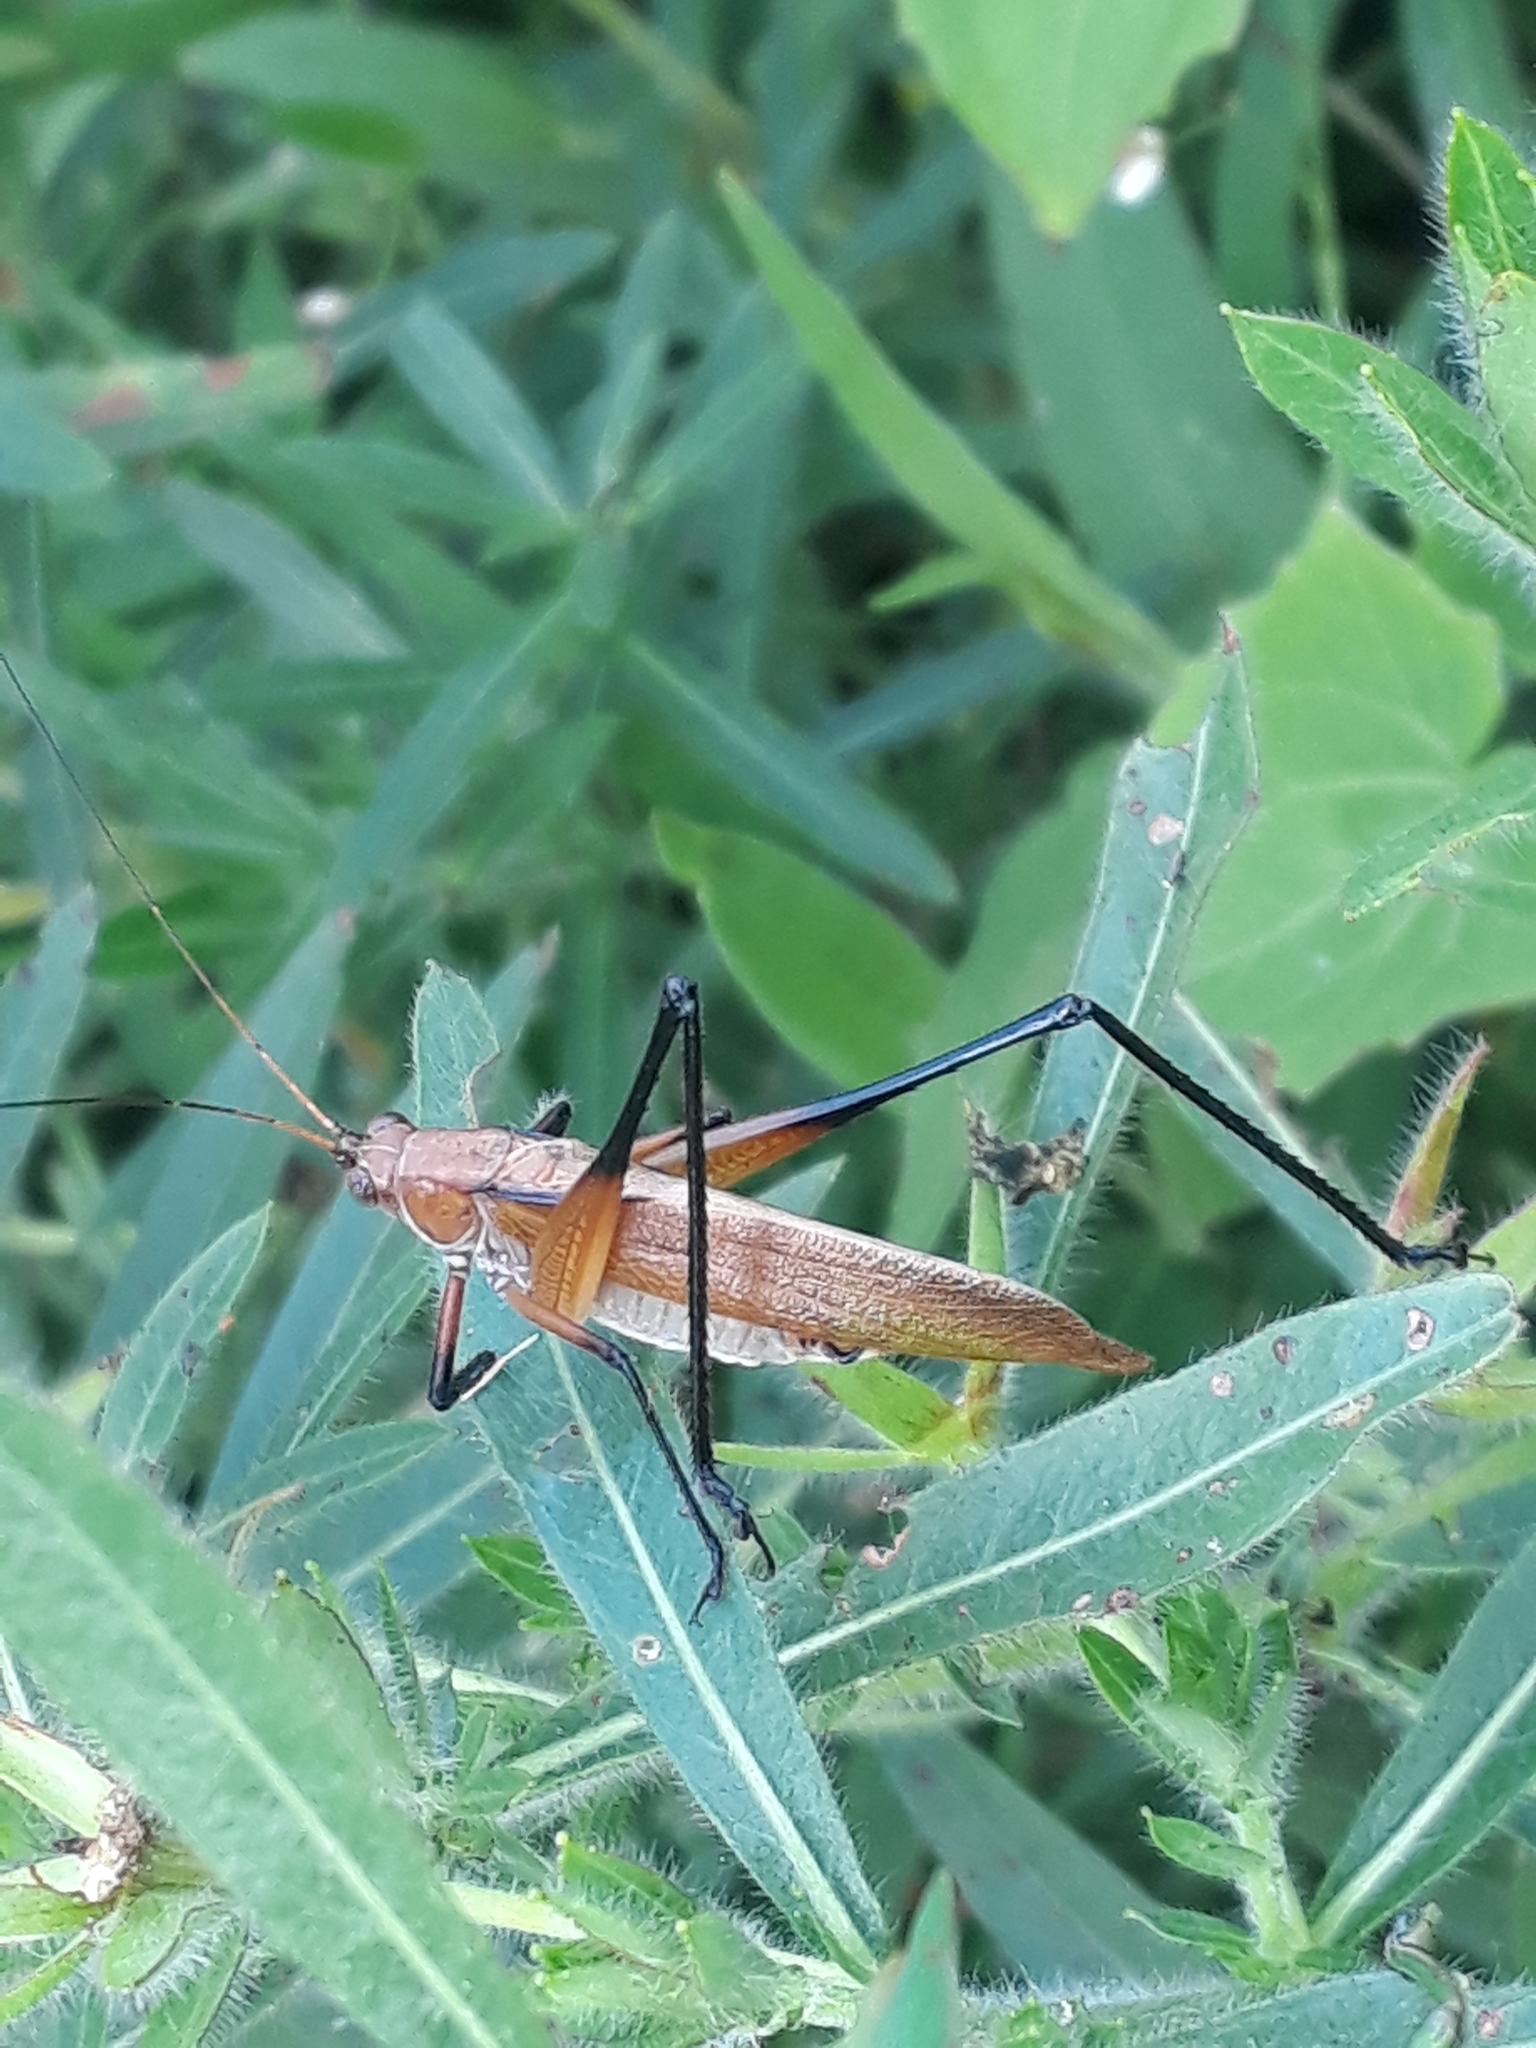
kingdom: Animalia
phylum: Arthropoda
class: Insecta
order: Orthoptera
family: Tettigoniidae
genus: Theudoria
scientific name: Theudoria melanocnemis
